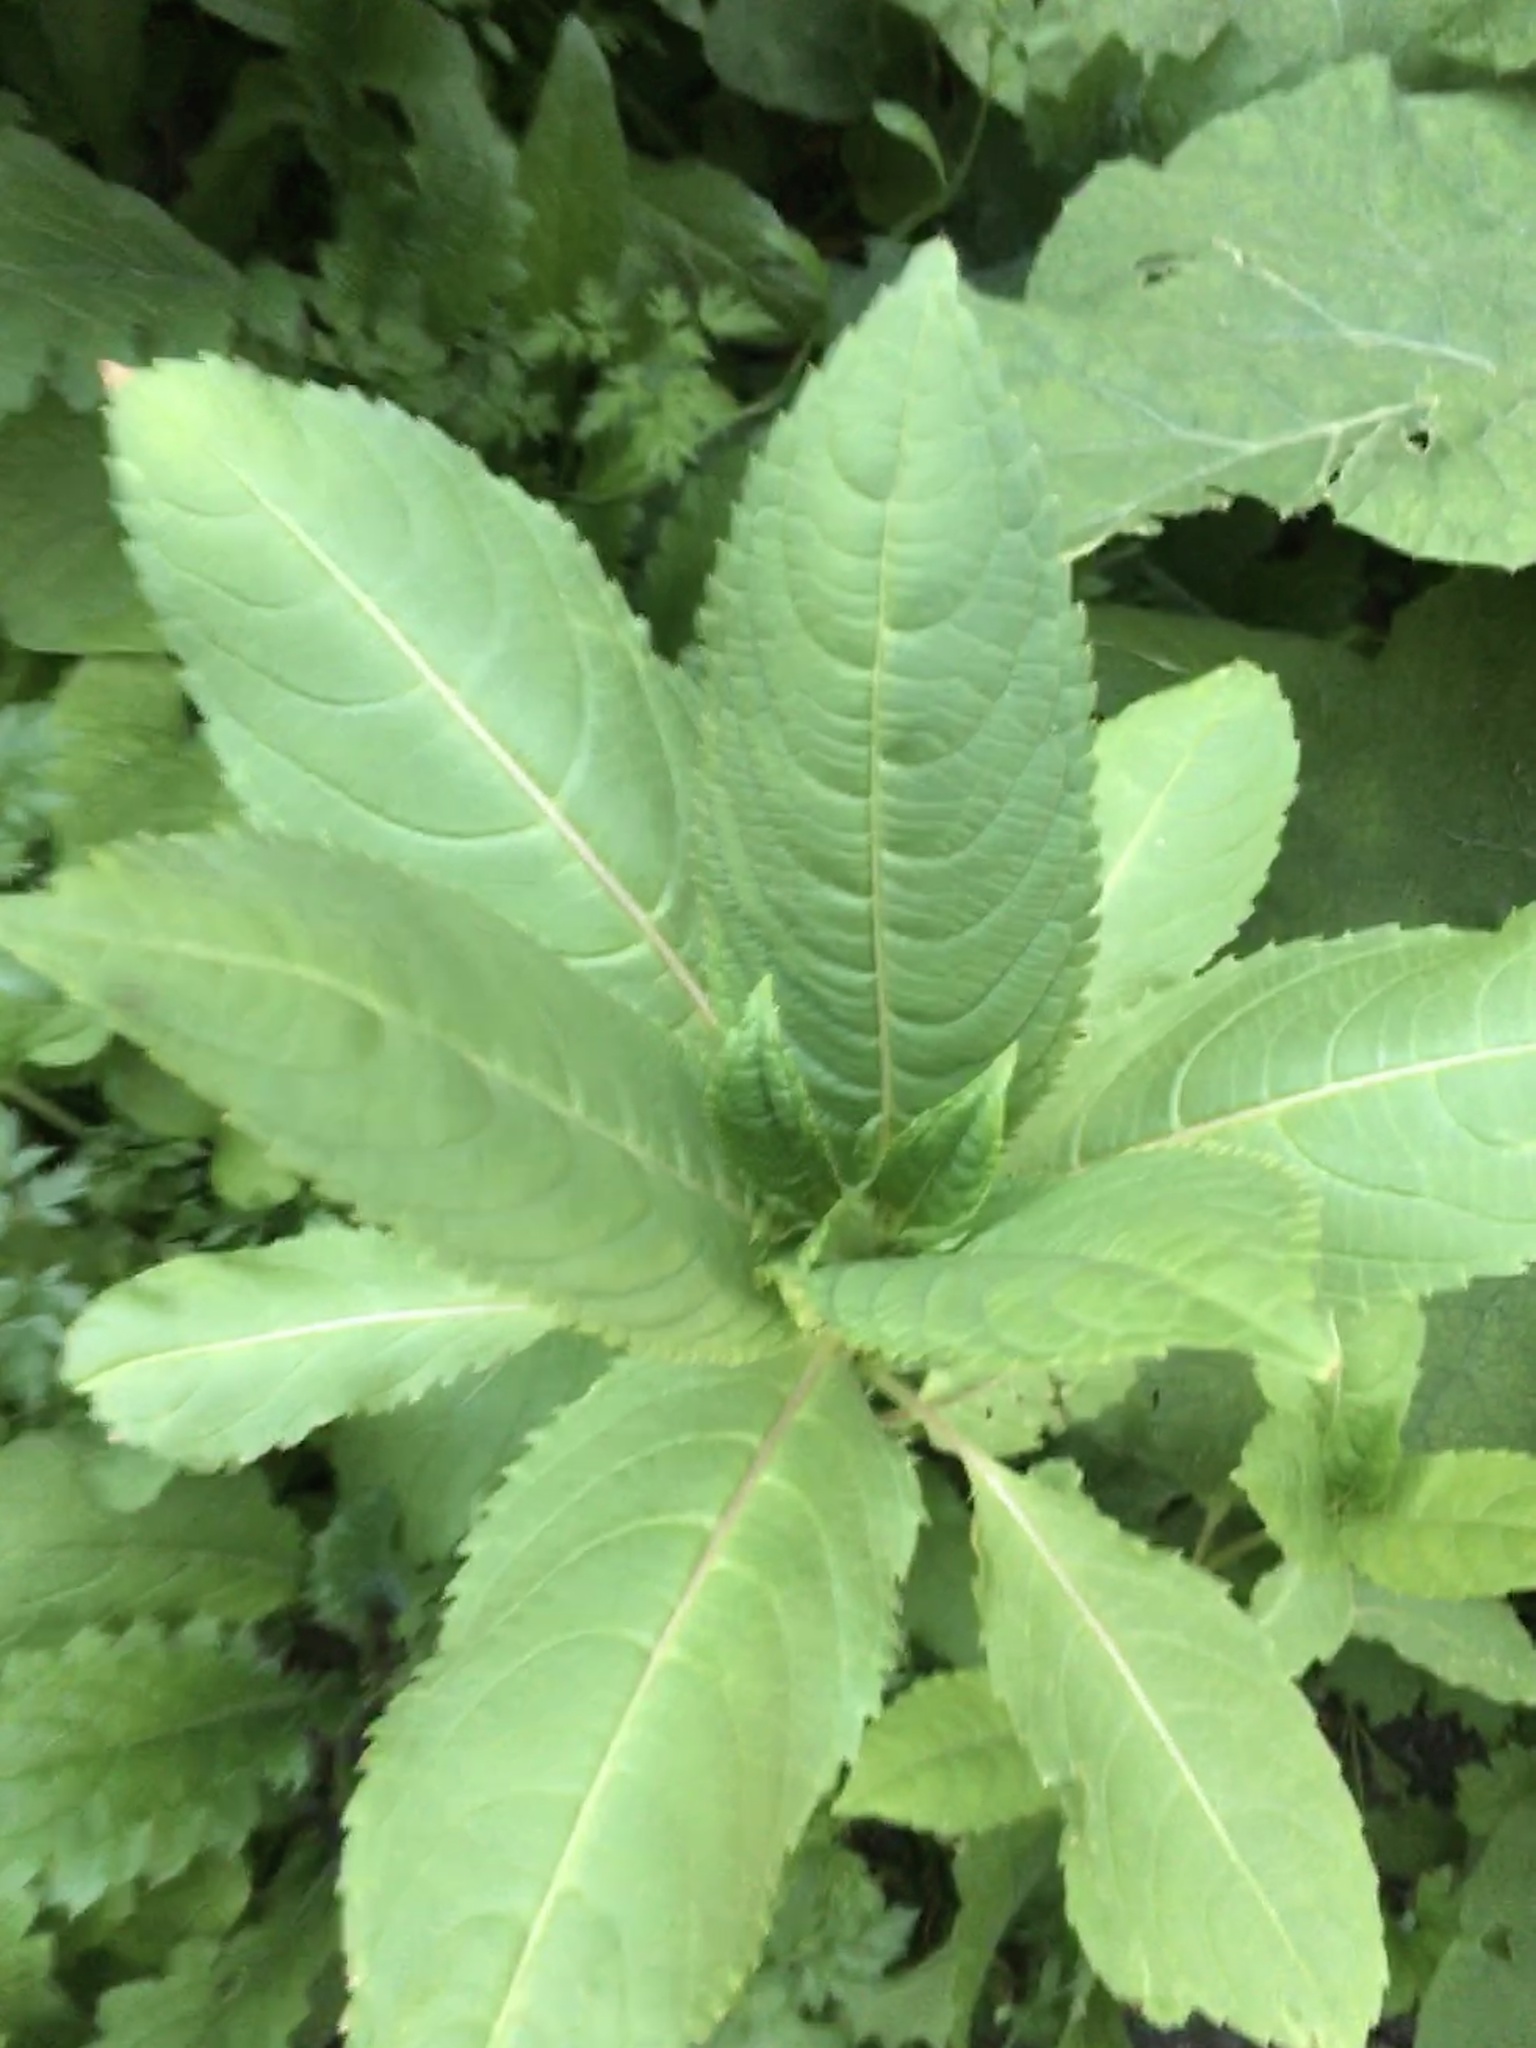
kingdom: Plantae
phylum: Tracheophyta
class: Magnoliopsida
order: Ericales
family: Balsaminaceae
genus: Impatiens
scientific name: Impatiens glandulifera
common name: Himalayan balsam
